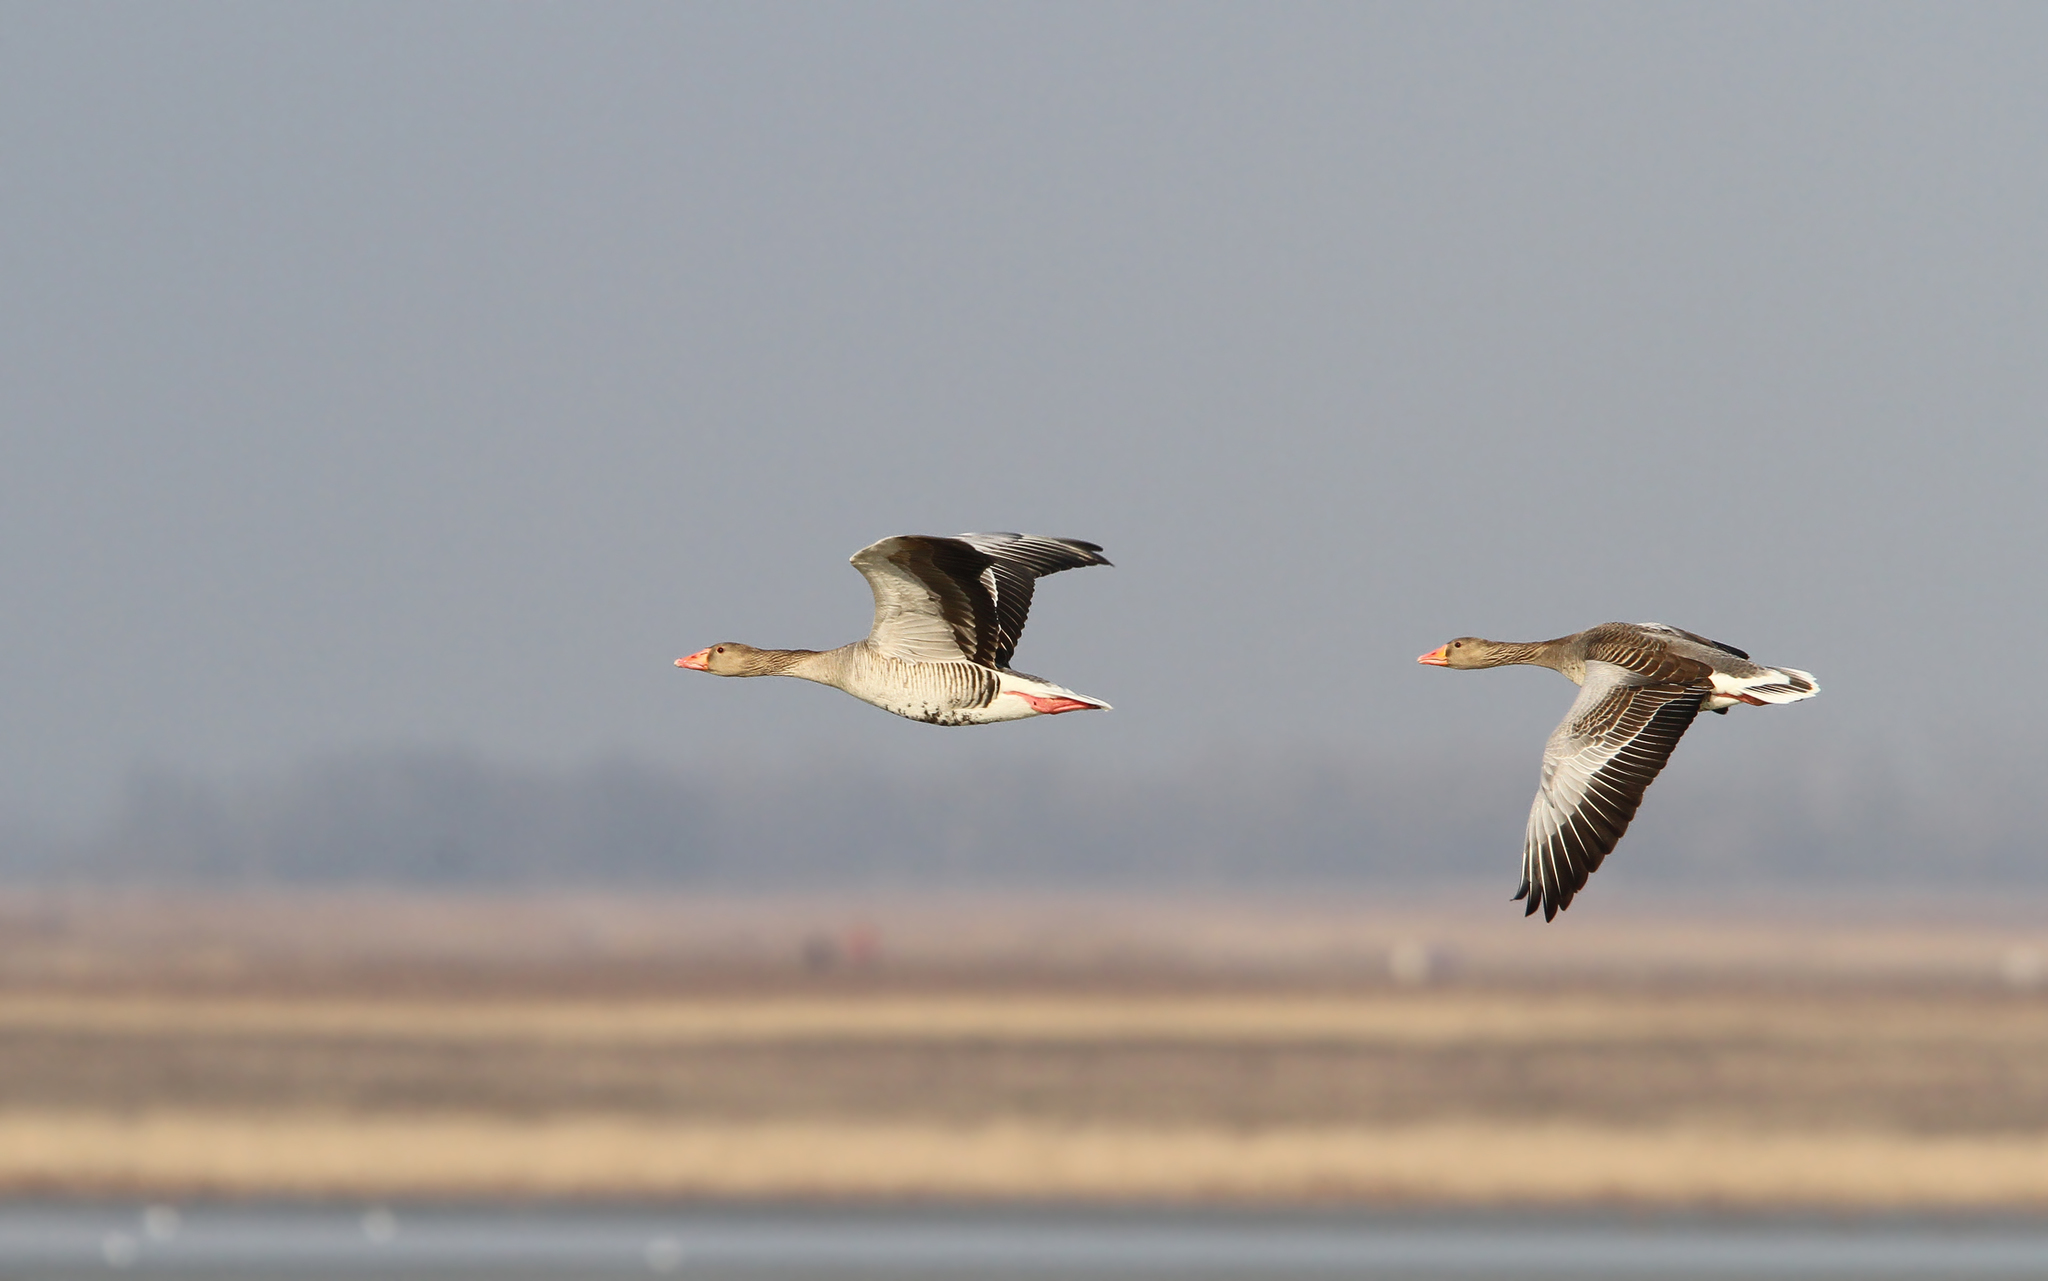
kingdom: Animalia
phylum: Chordata
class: Aves
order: Anseriformes
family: Anatidae
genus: Anser
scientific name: Anser anser
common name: Greylag goose
